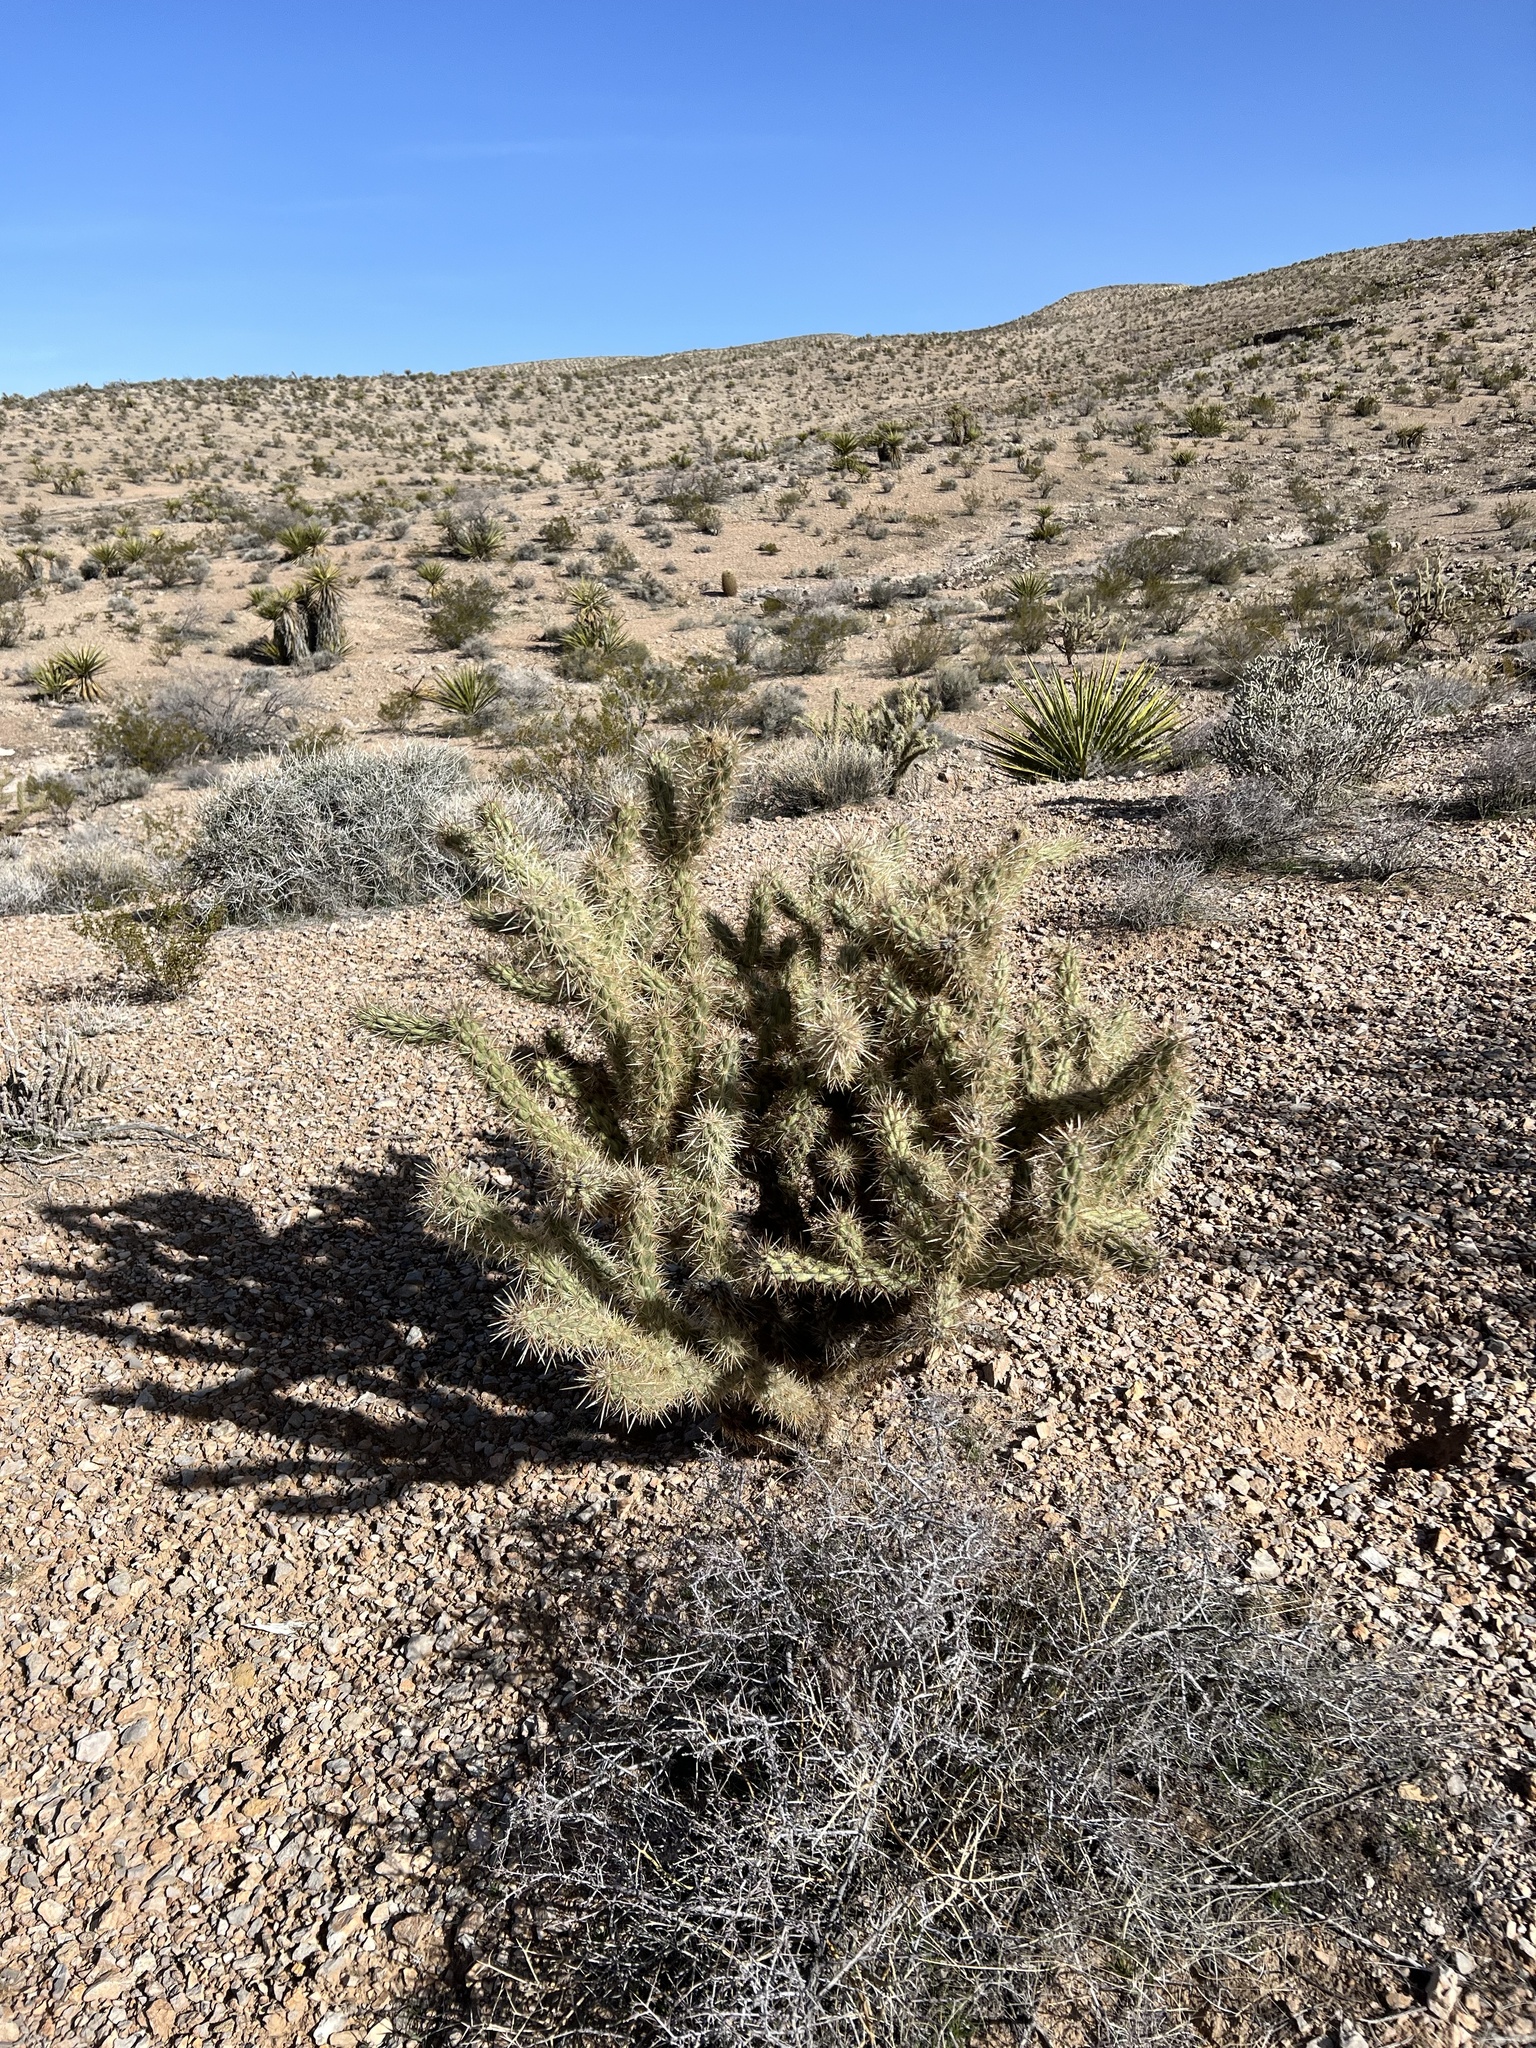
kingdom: Plantae
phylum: Tracheophyta
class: Magnoliopsida
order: Caryophyllales
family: Cactaceae
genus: Cylindropuntia
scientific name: Cylindropuntia acanthocarpa
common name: Buckhorn cholla
